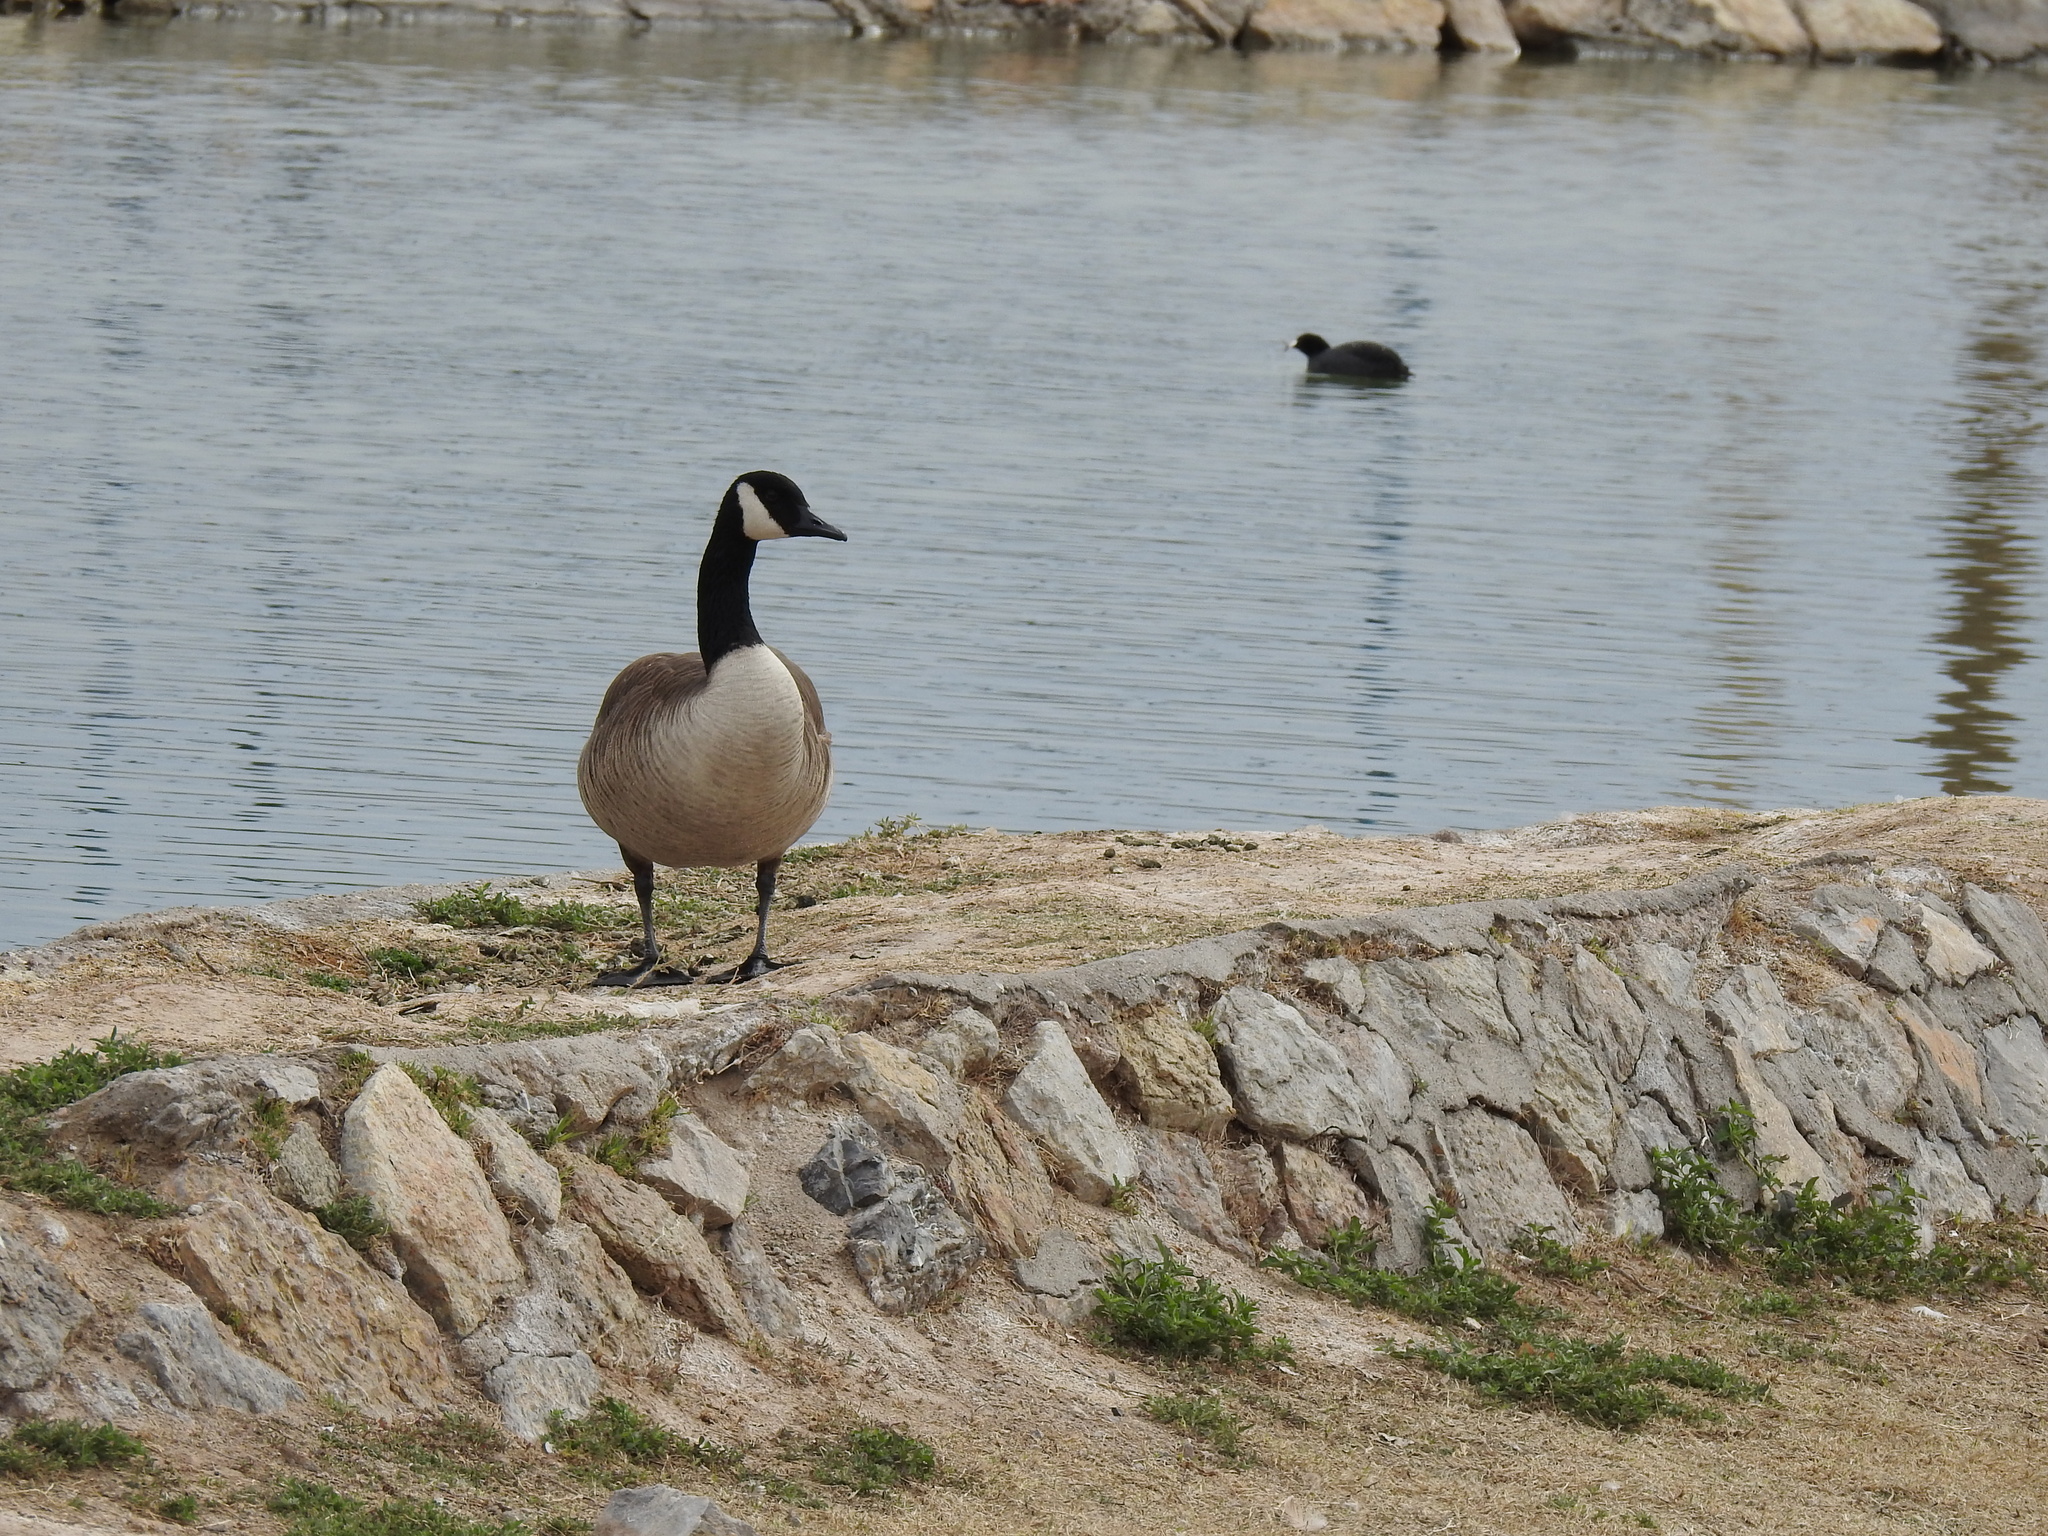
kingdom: Animalia
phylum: Chordata
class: Aves
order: Anseriformes
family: Anatidae
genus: Branta
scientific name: Branta canadensis
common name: Canada goose
